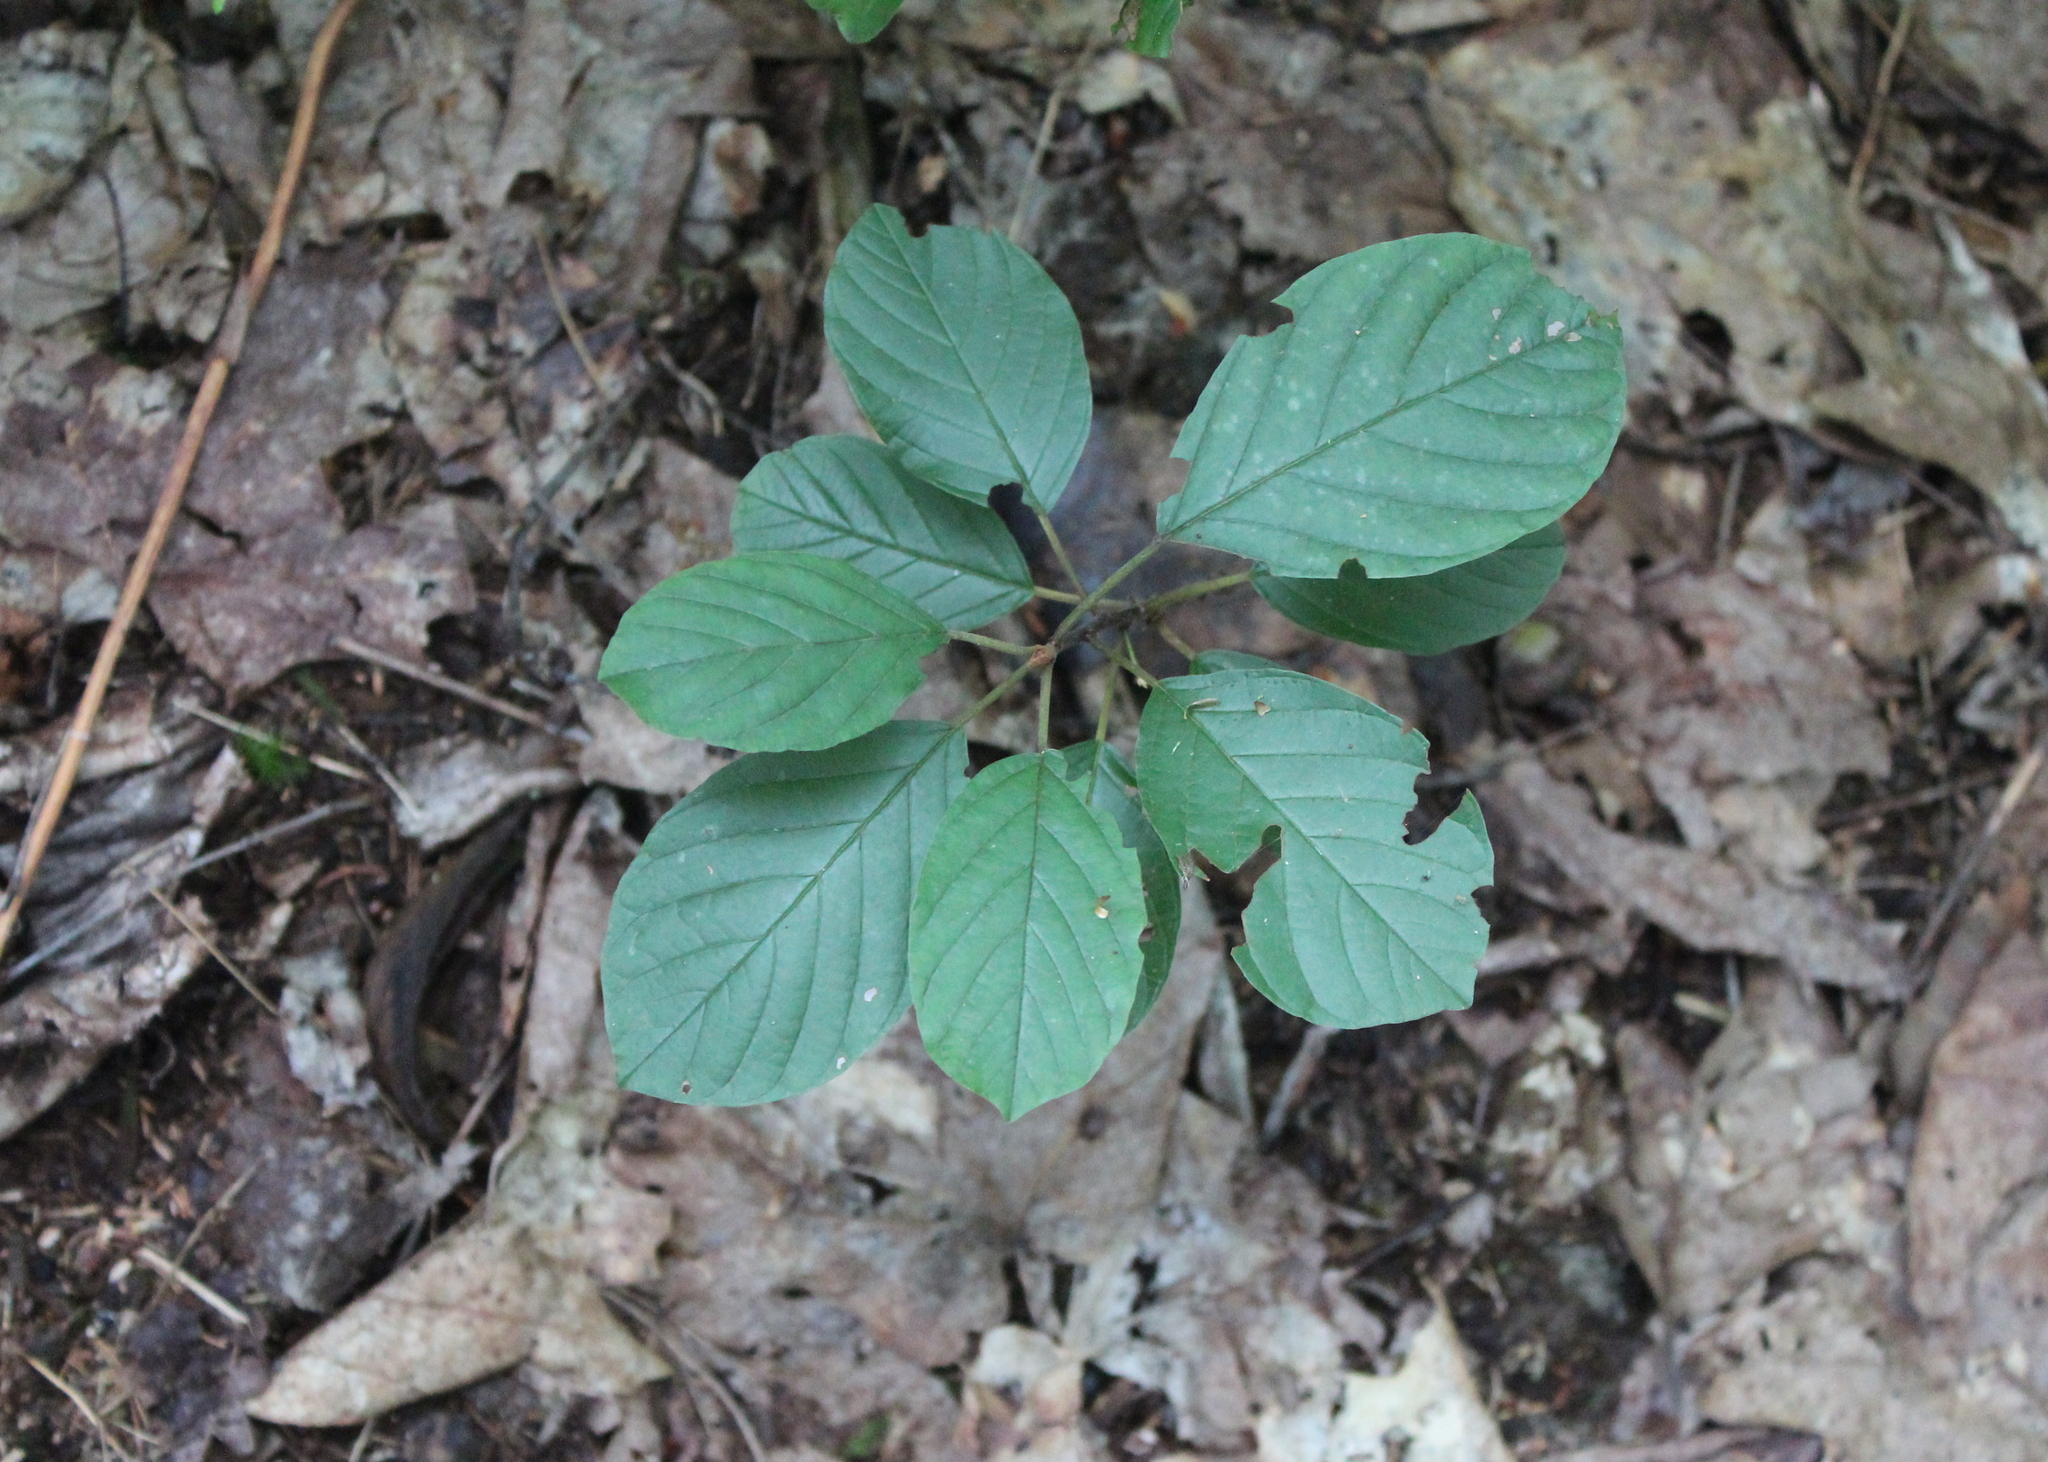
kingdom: Plantae
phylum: Tracheophyta
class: Magnoliopsida
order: Rosales
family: Rhamnaceae
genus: Frangula
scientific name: Frangula alnus
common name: Alder buckthorn
